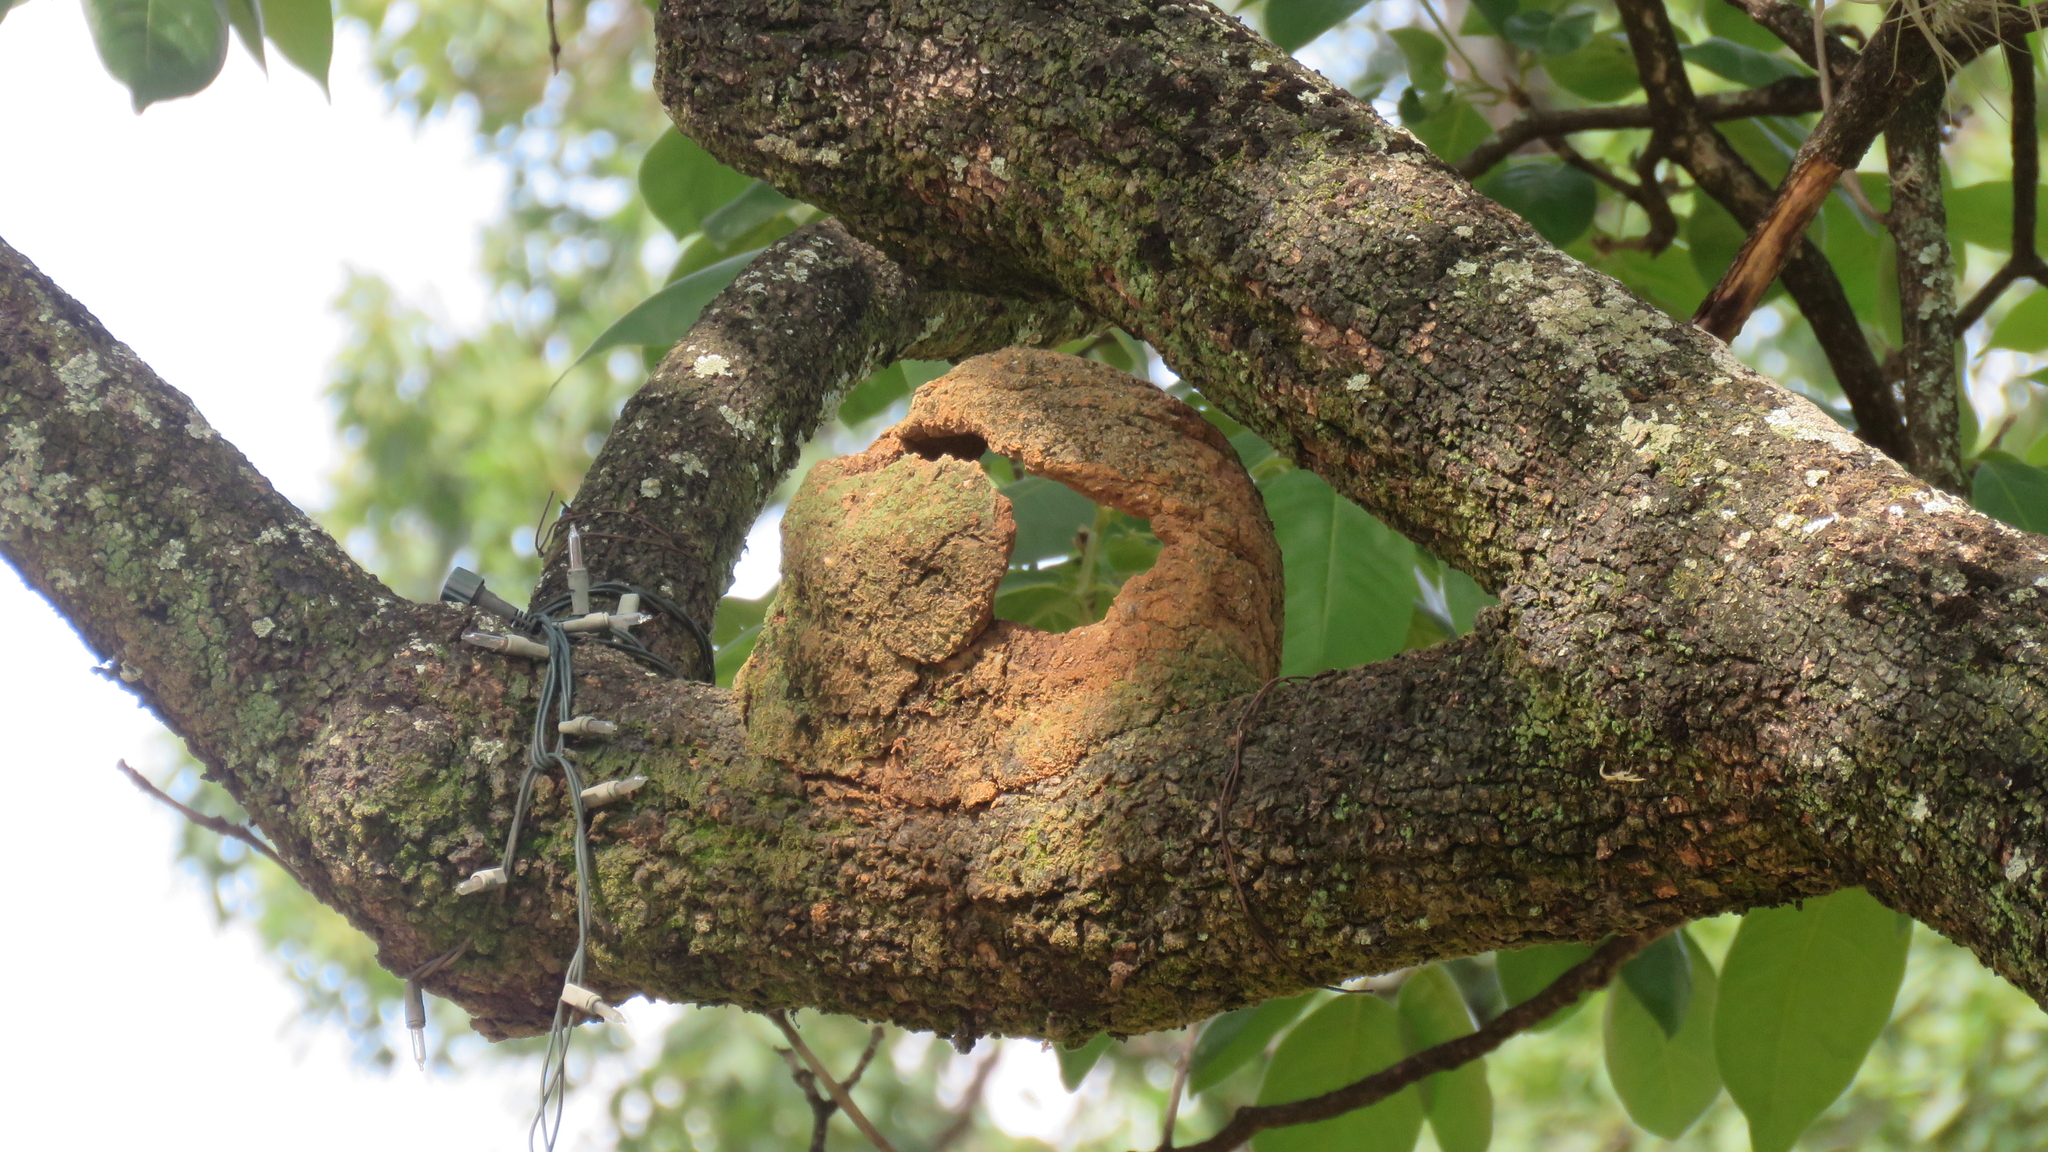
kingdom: Animalia
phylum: Chordata
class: Aves
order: Passeriformes
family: Furnariidae
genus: Furnarius
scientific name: Furnarius rufus
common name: Rufous hornero
